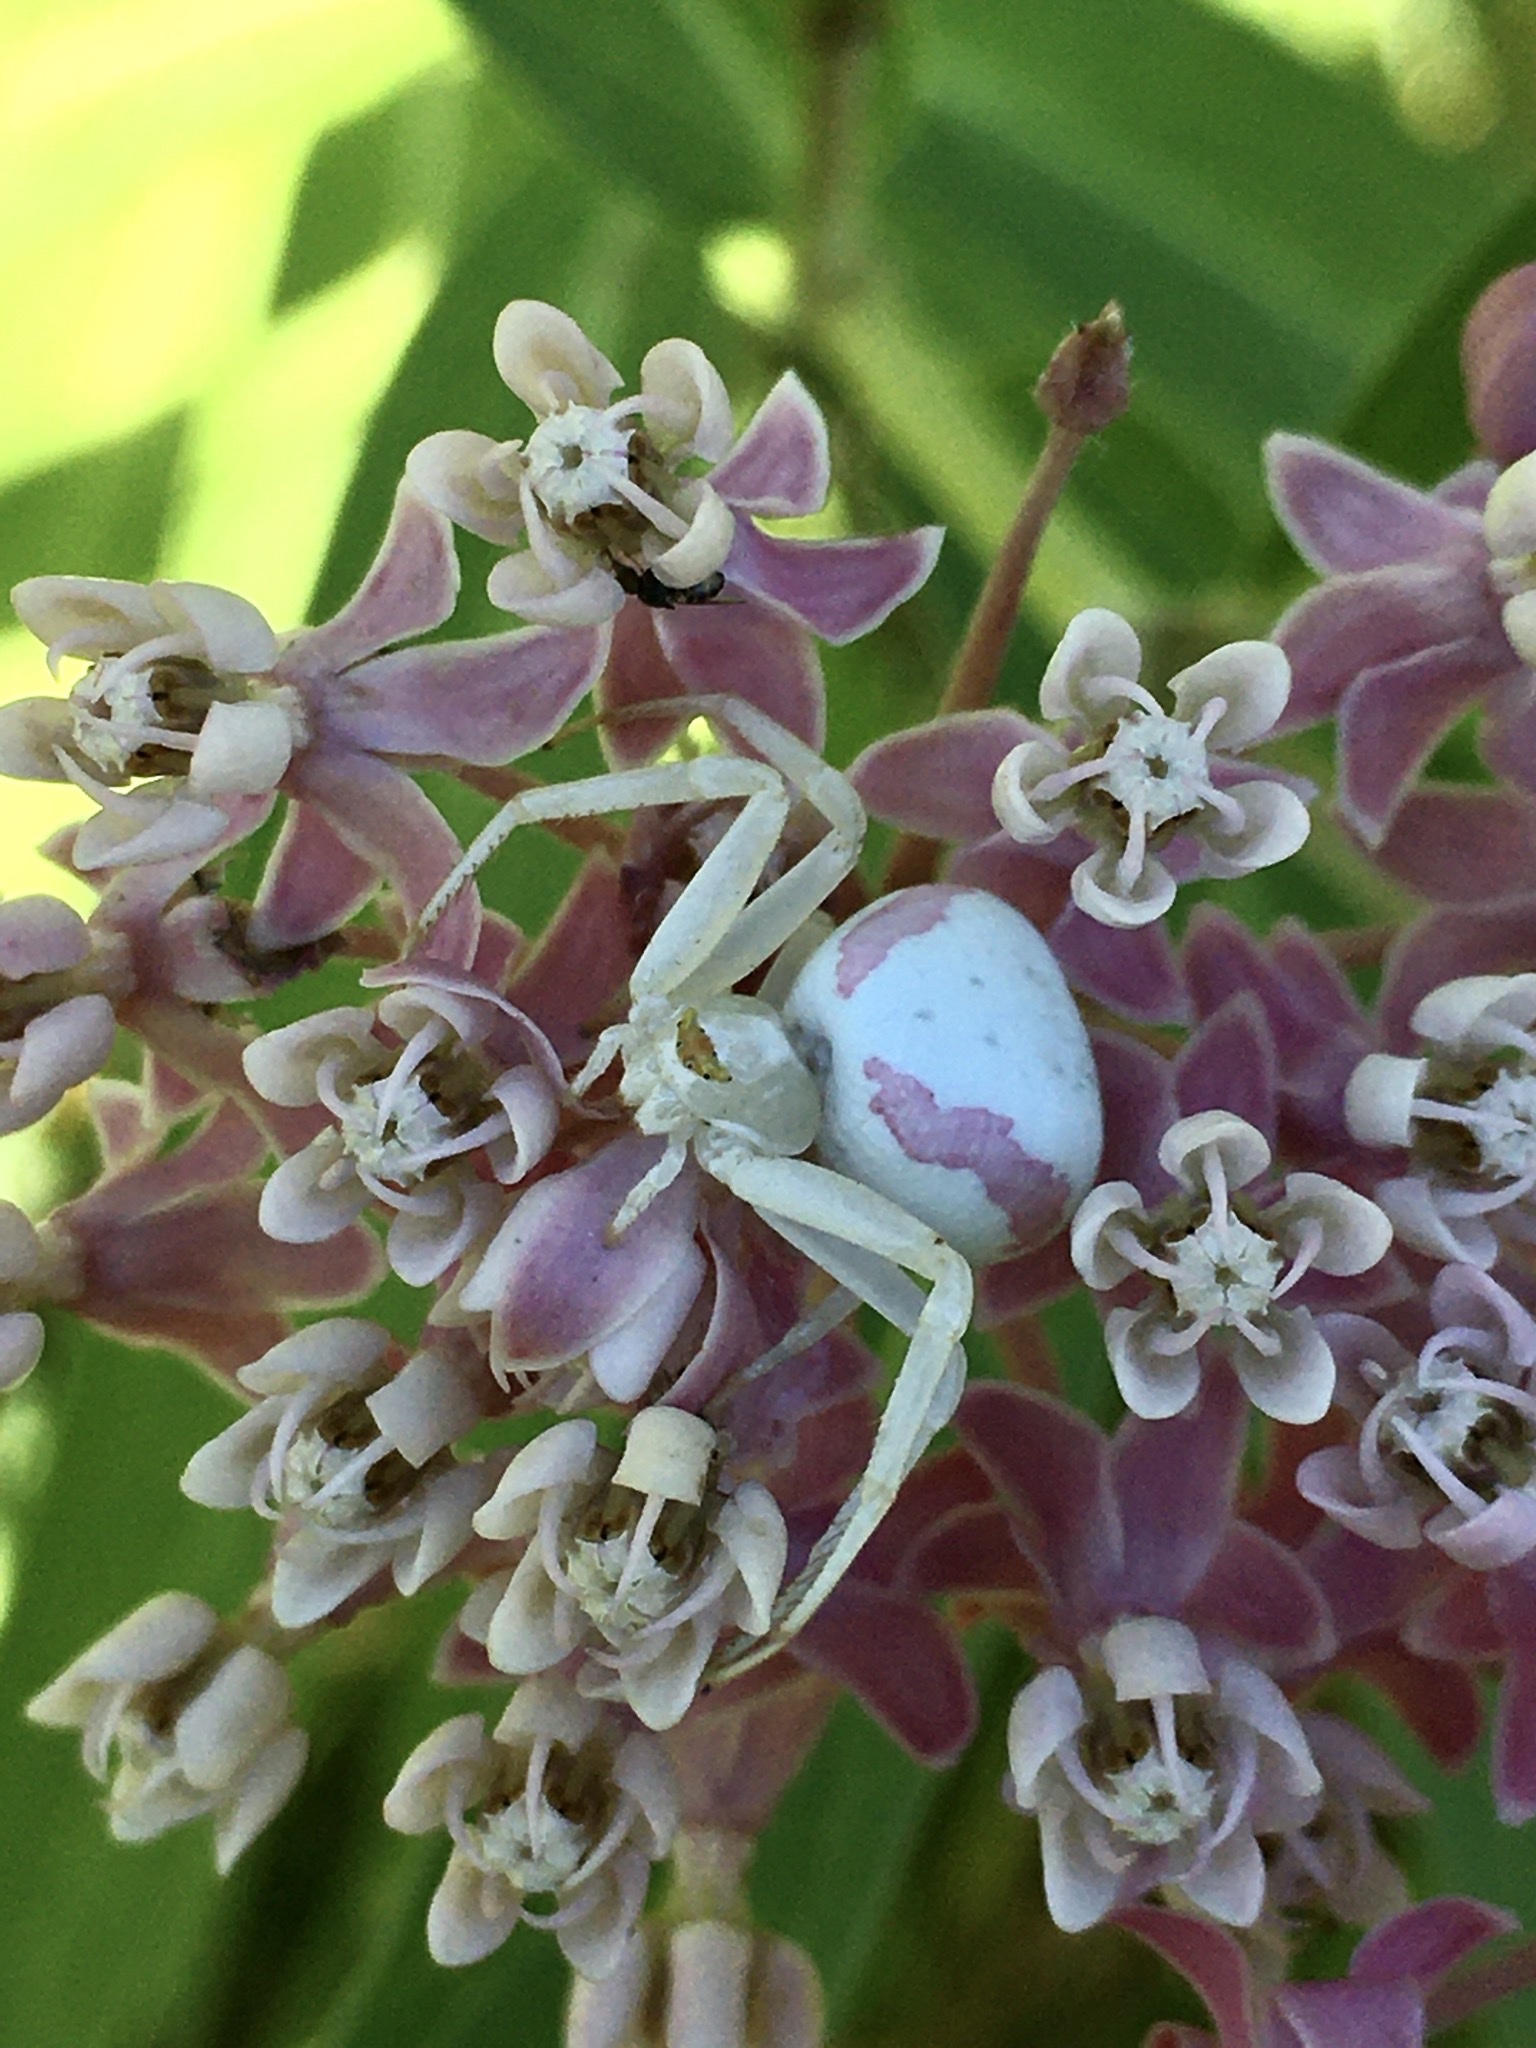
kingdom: Animalia
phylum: Arthropoda
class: Arachnida
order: Araneae
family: Thomisidae
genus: Misumena
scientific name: Misumena vatia
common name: Goldenrod crab spider
